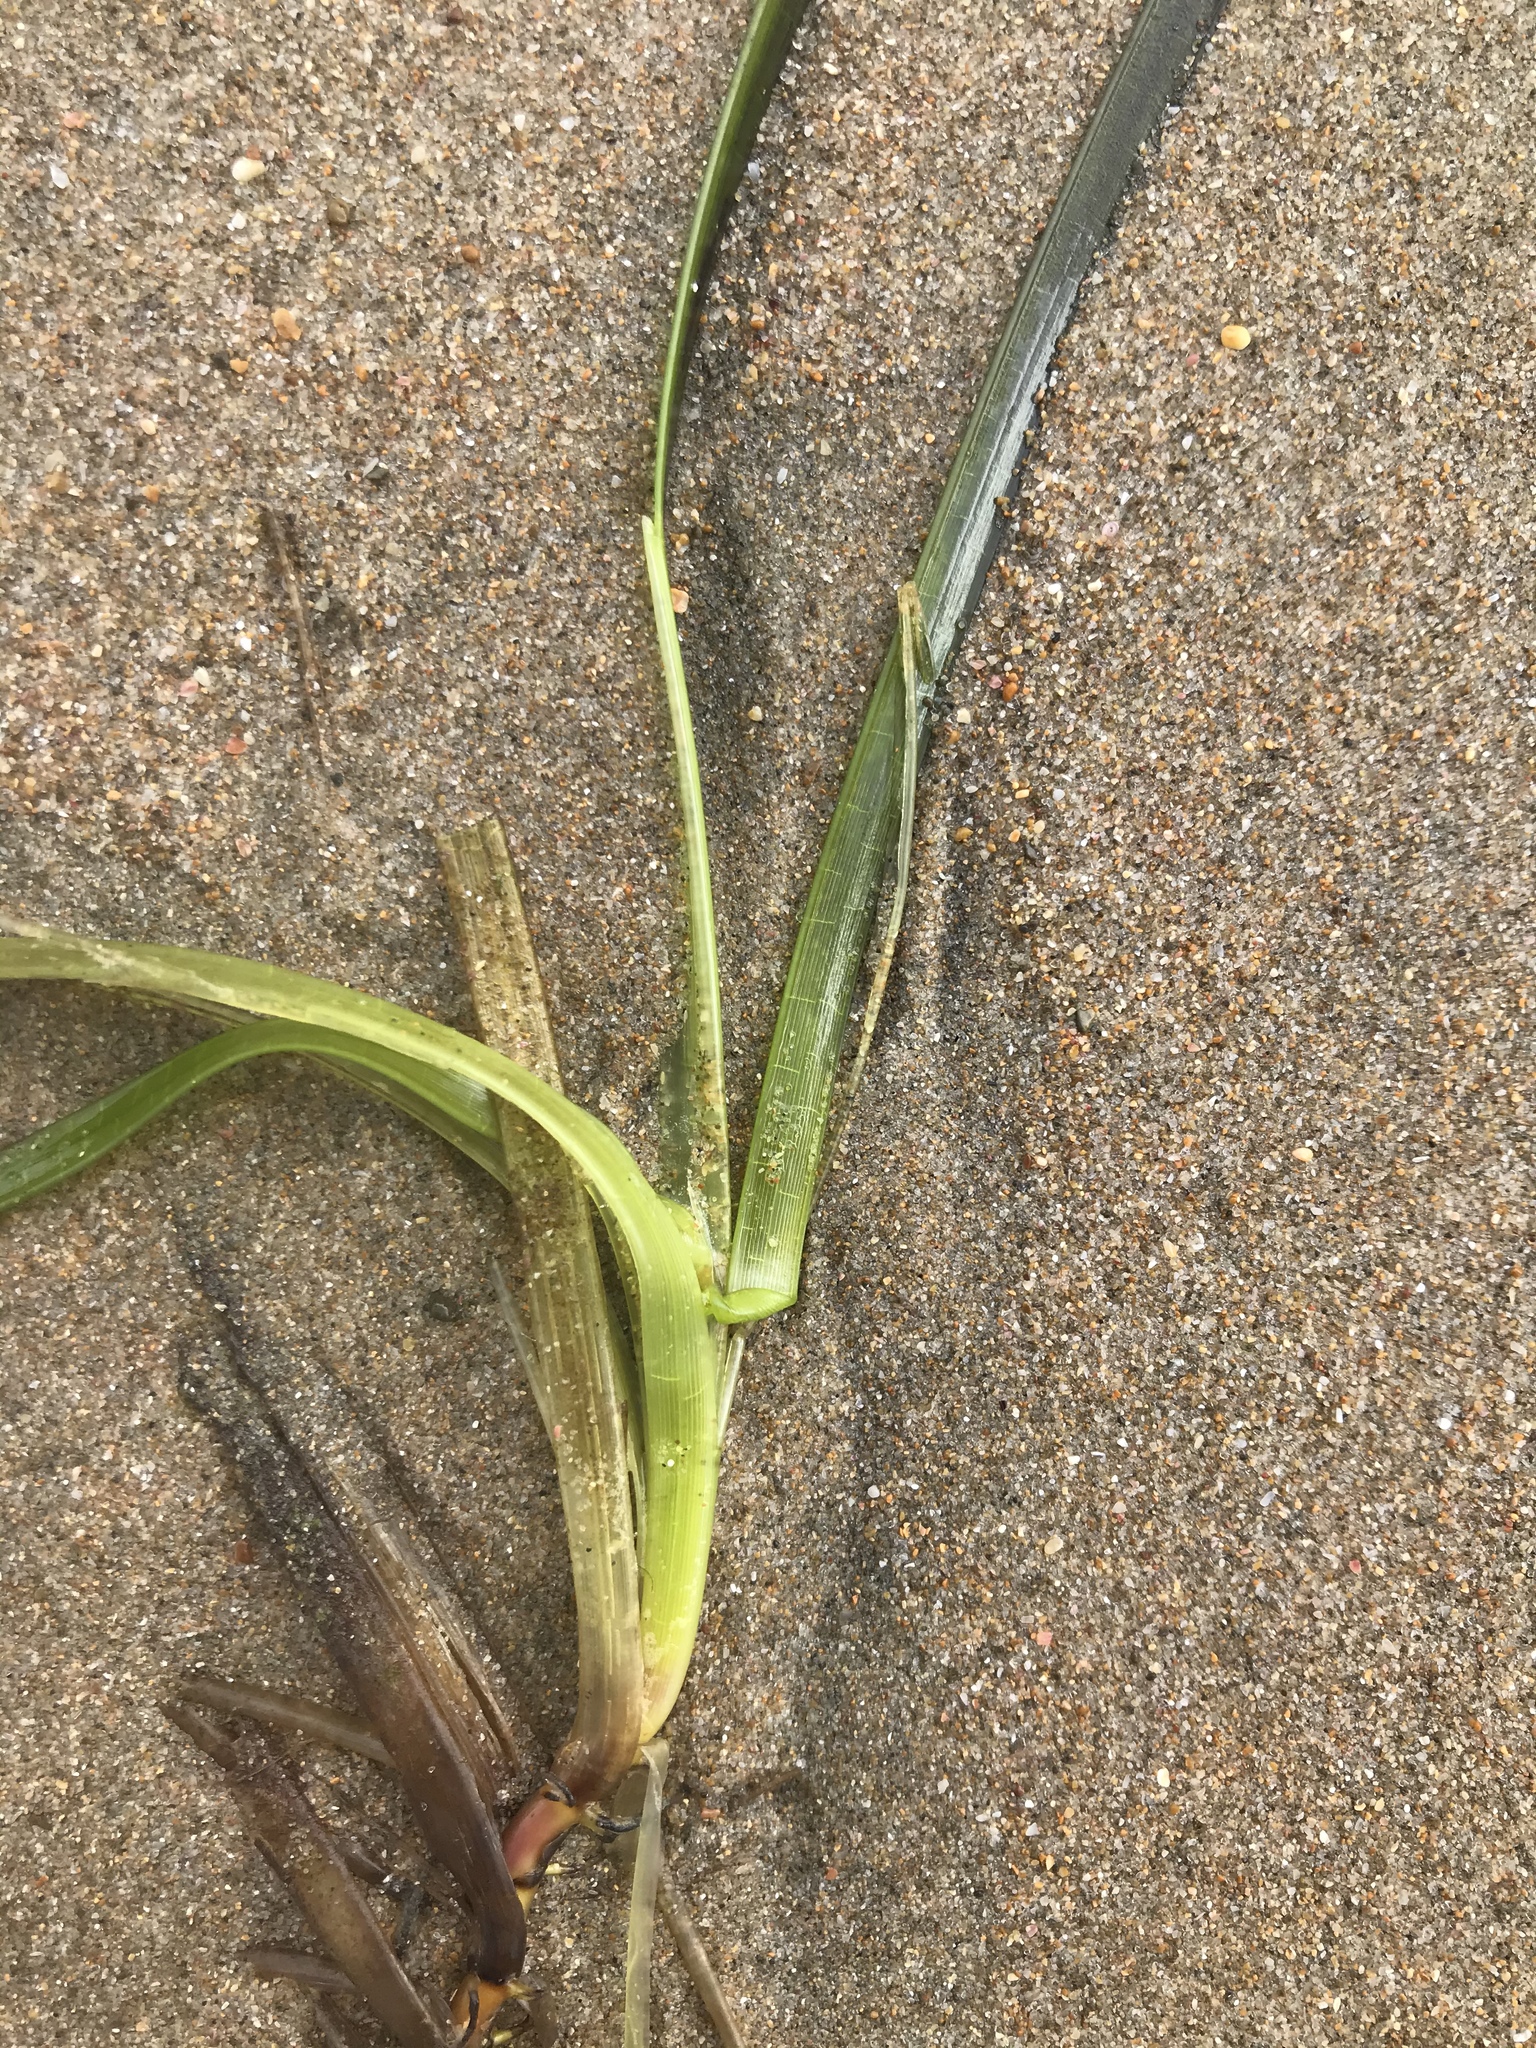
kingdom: Plantae
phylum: Tracheophyta
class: Liliopsida
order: Alismatales
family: Zosteraceae
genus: Zostera
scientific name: Zostera novazelandica
